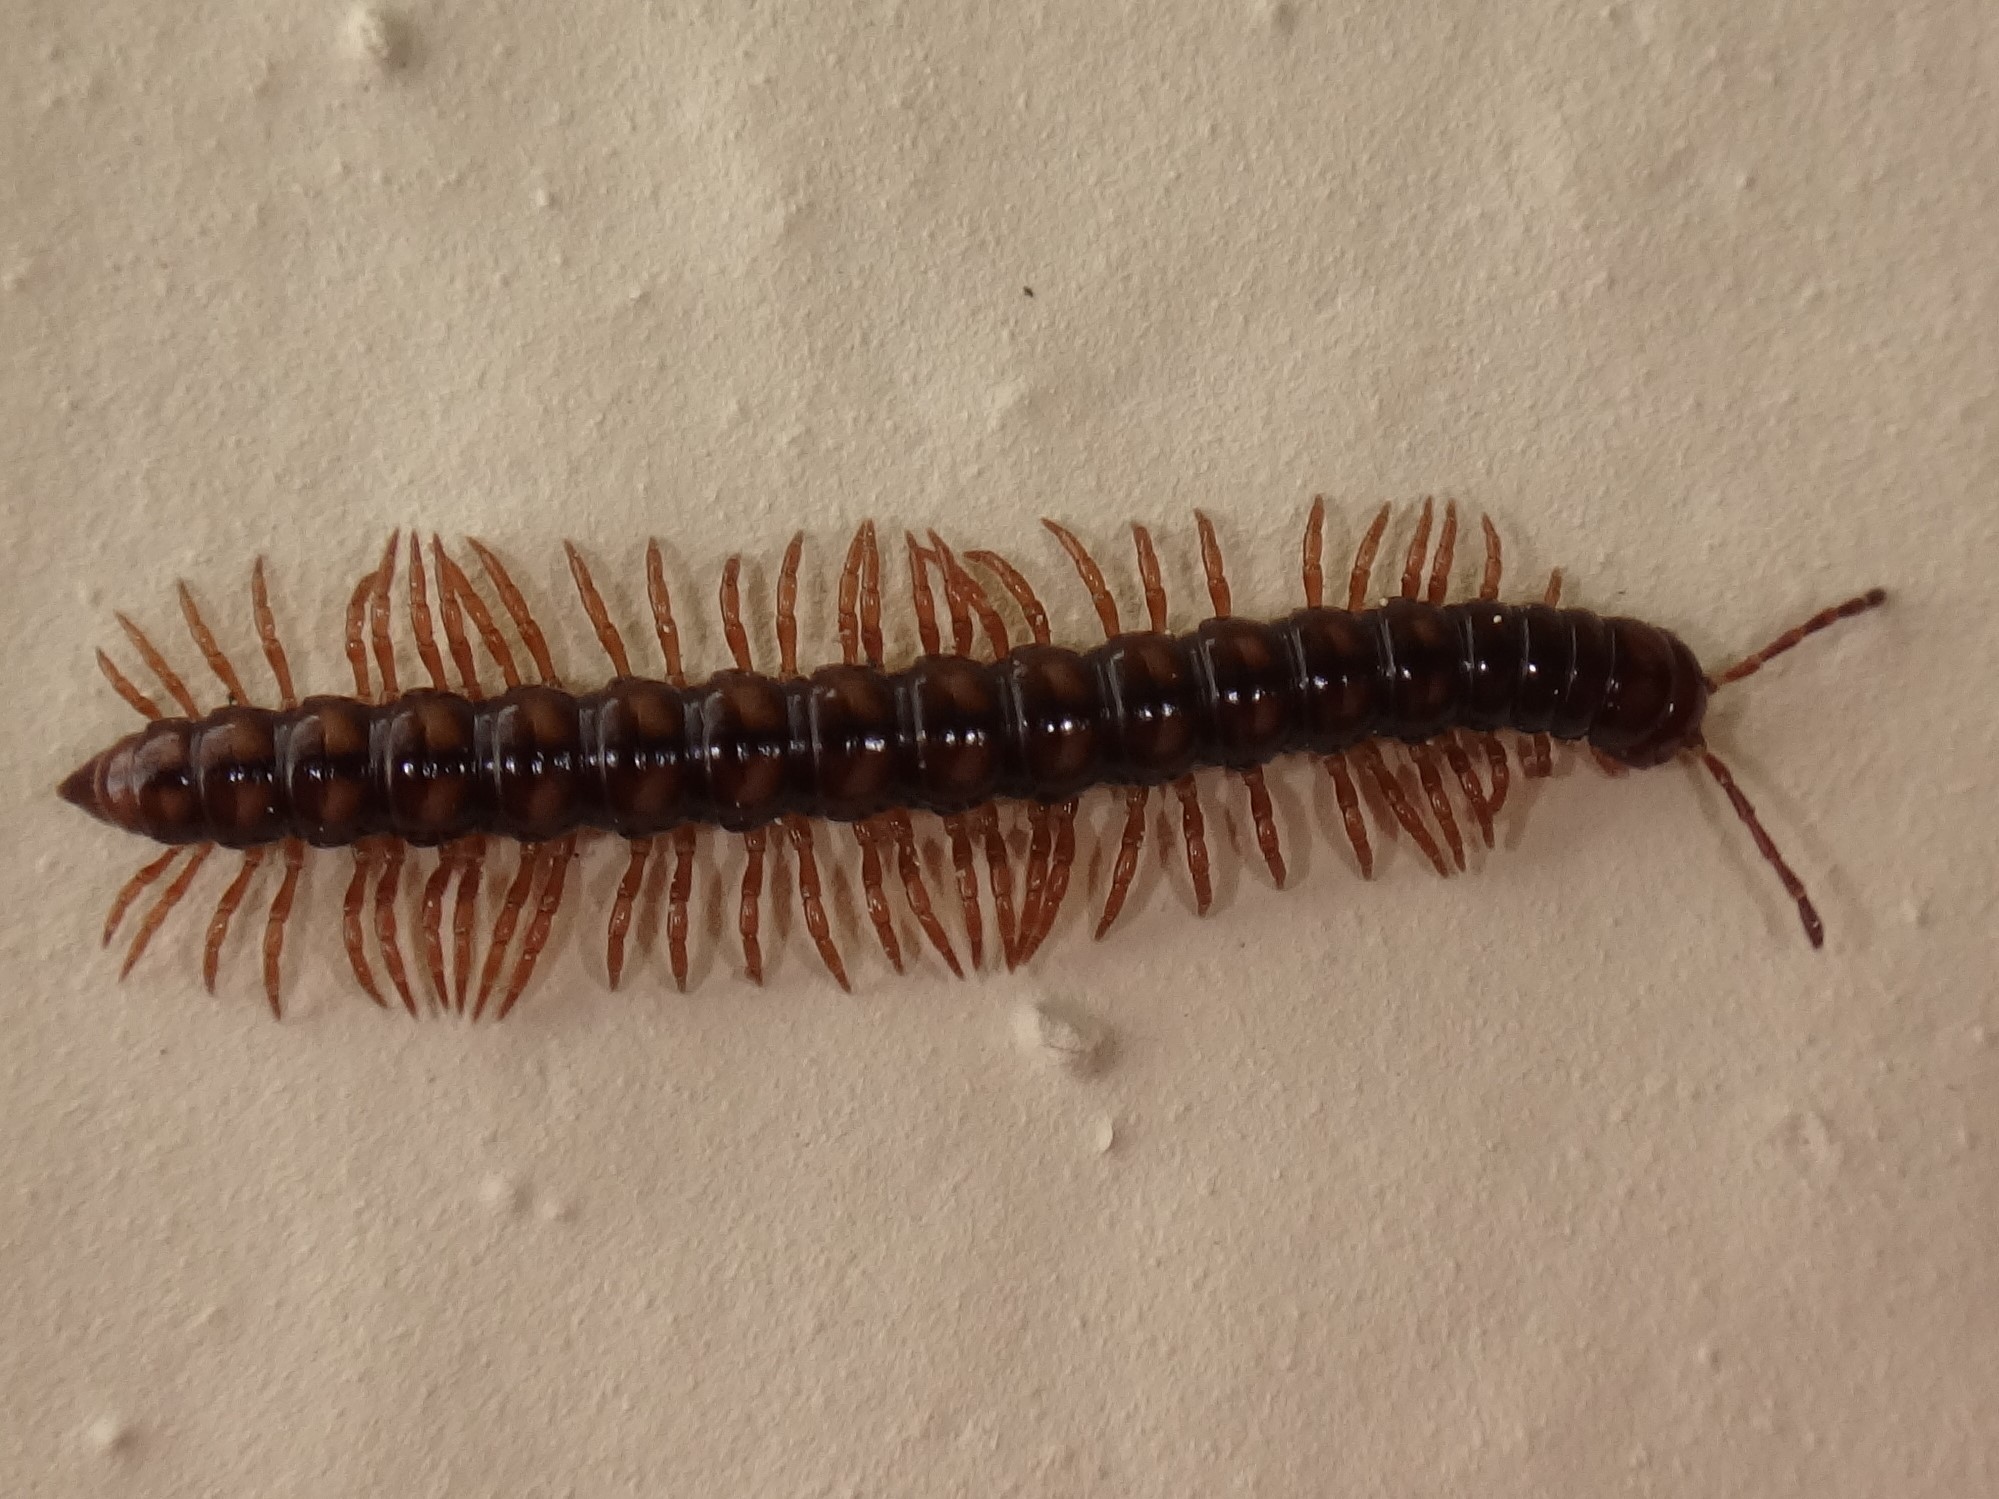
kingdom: Animalia
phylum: Arthropoda
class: Diplopoda
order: Polydesmida
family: Paradoxosomatidae
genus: Strongylosoma
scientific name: Strongylosoma stigmatosus
